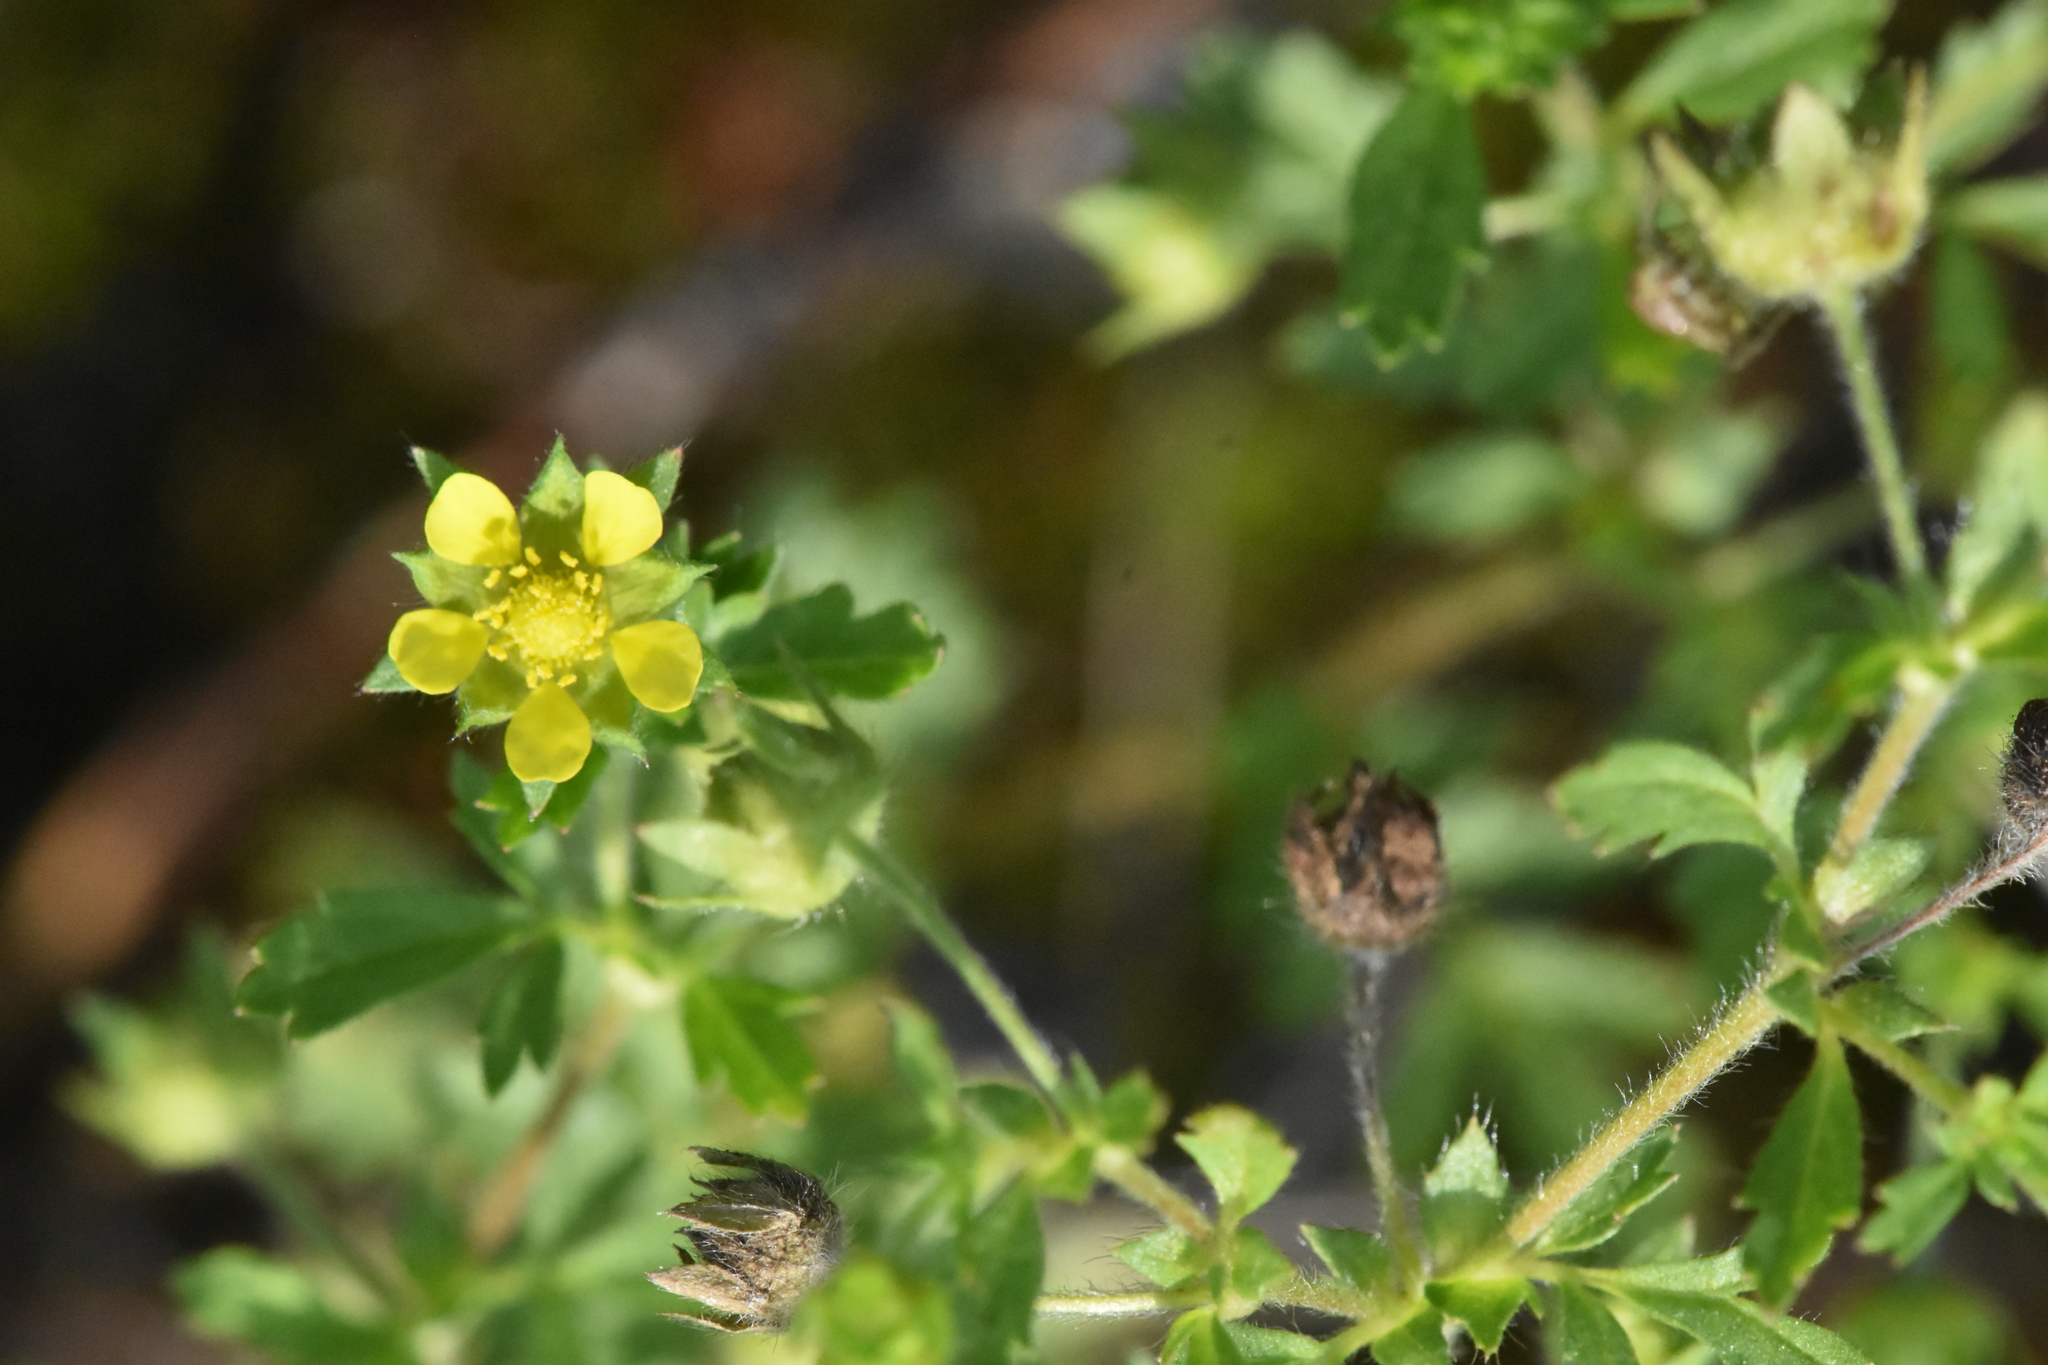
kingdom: Plantae
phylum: Tracheophyta
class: Magnoliopsida
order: Rosales
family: Rosaceae
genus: Potentilla
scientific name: Potentilla supina
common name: Prostrate cinquefoil
